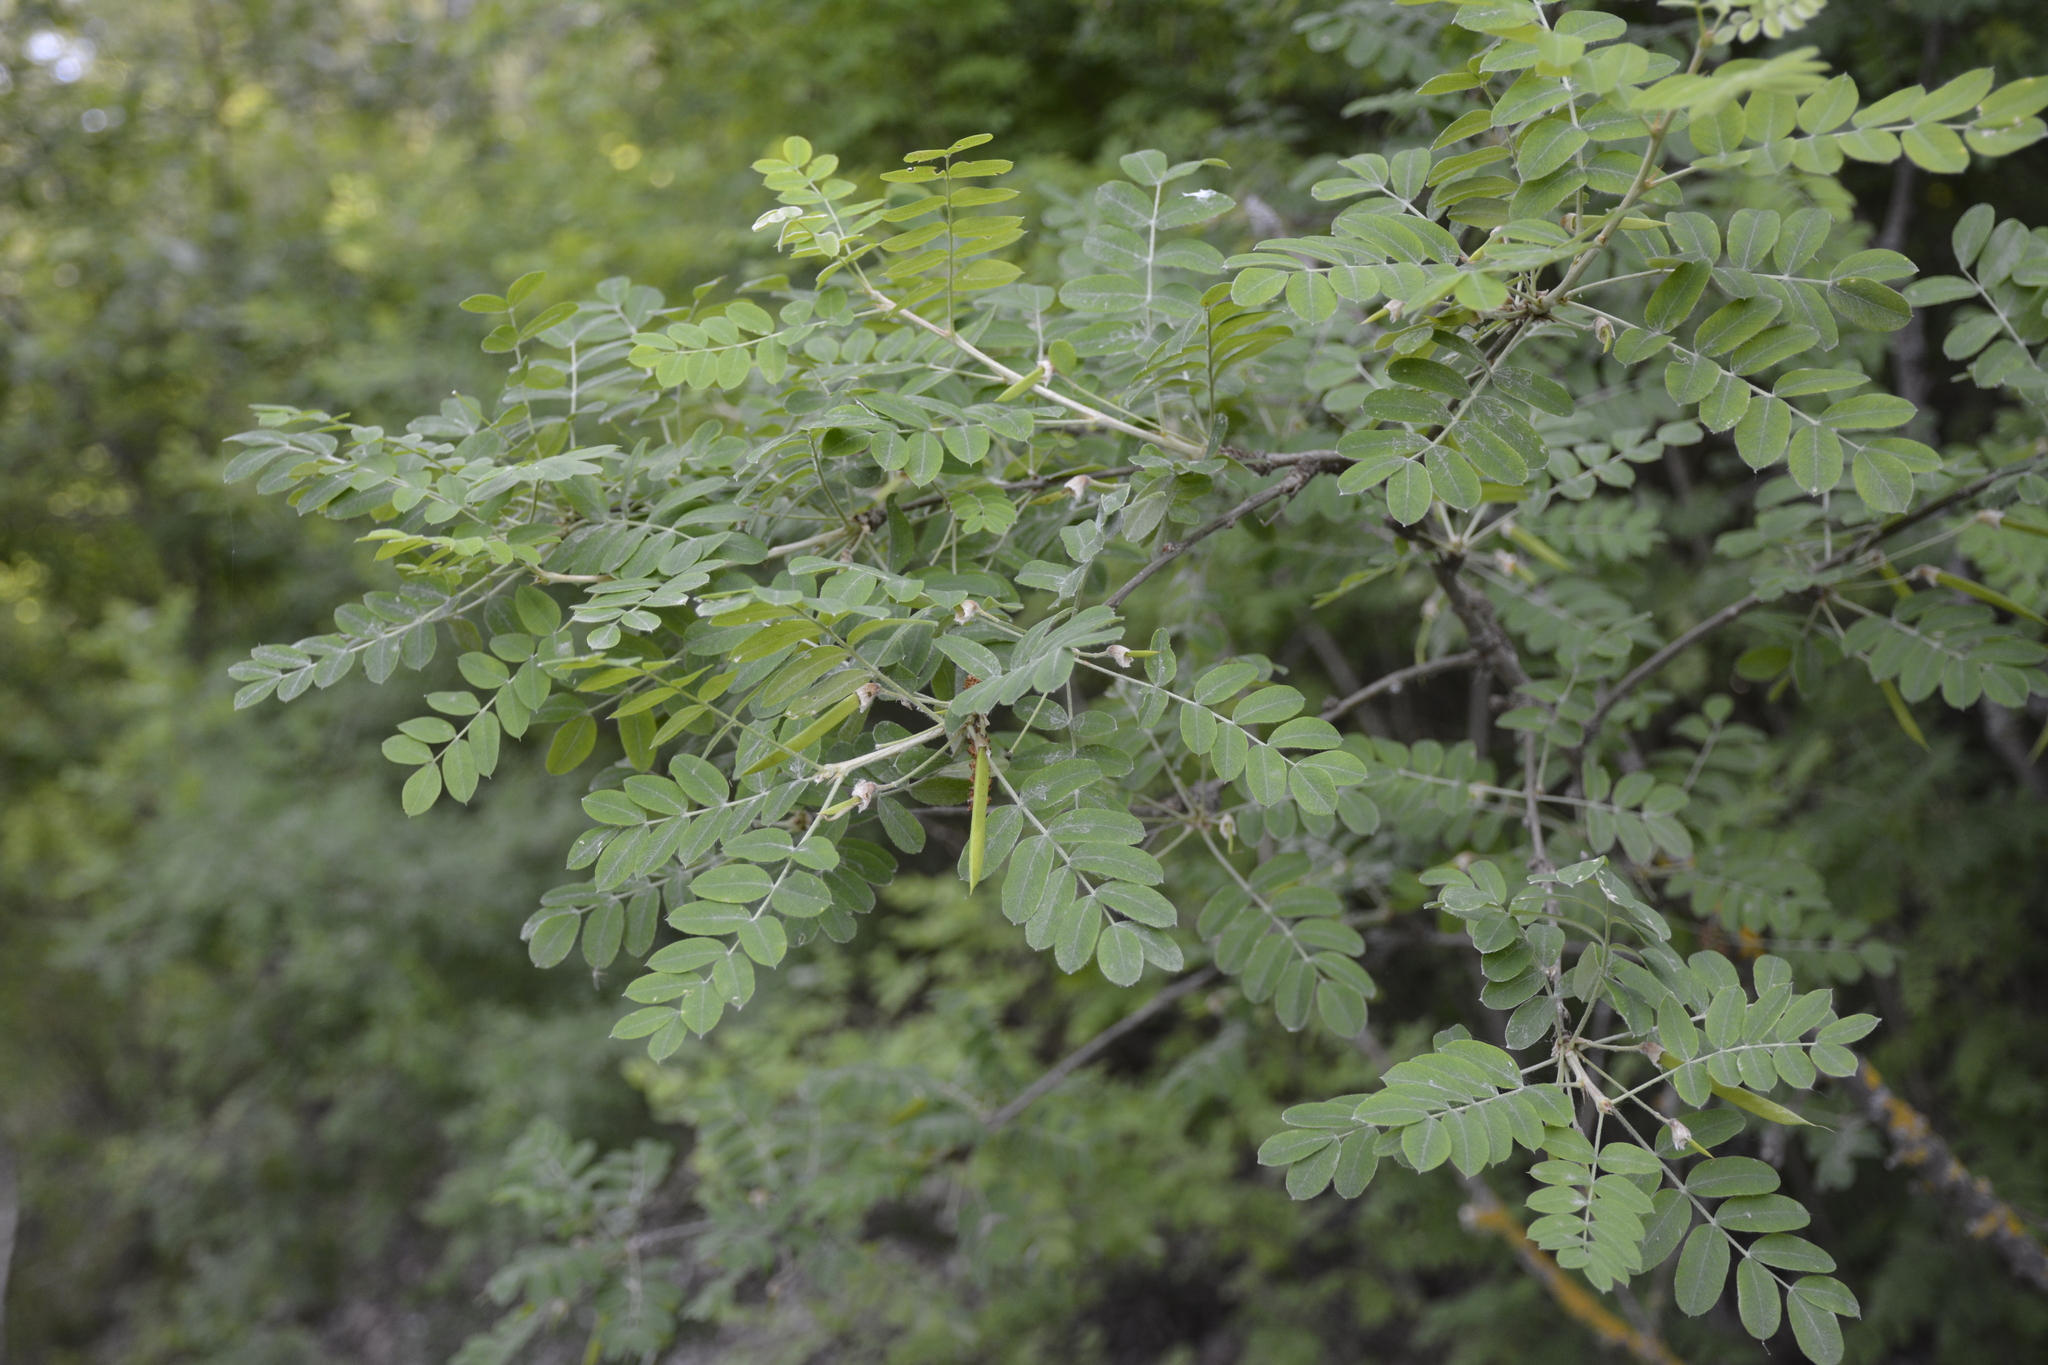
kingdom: Plantae
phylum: Tracheophyta
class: Magnoliopsida
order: Fabales
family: Fabaceae
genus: Caragana
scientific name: Caragana arborescens
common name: Siberian peashrub
